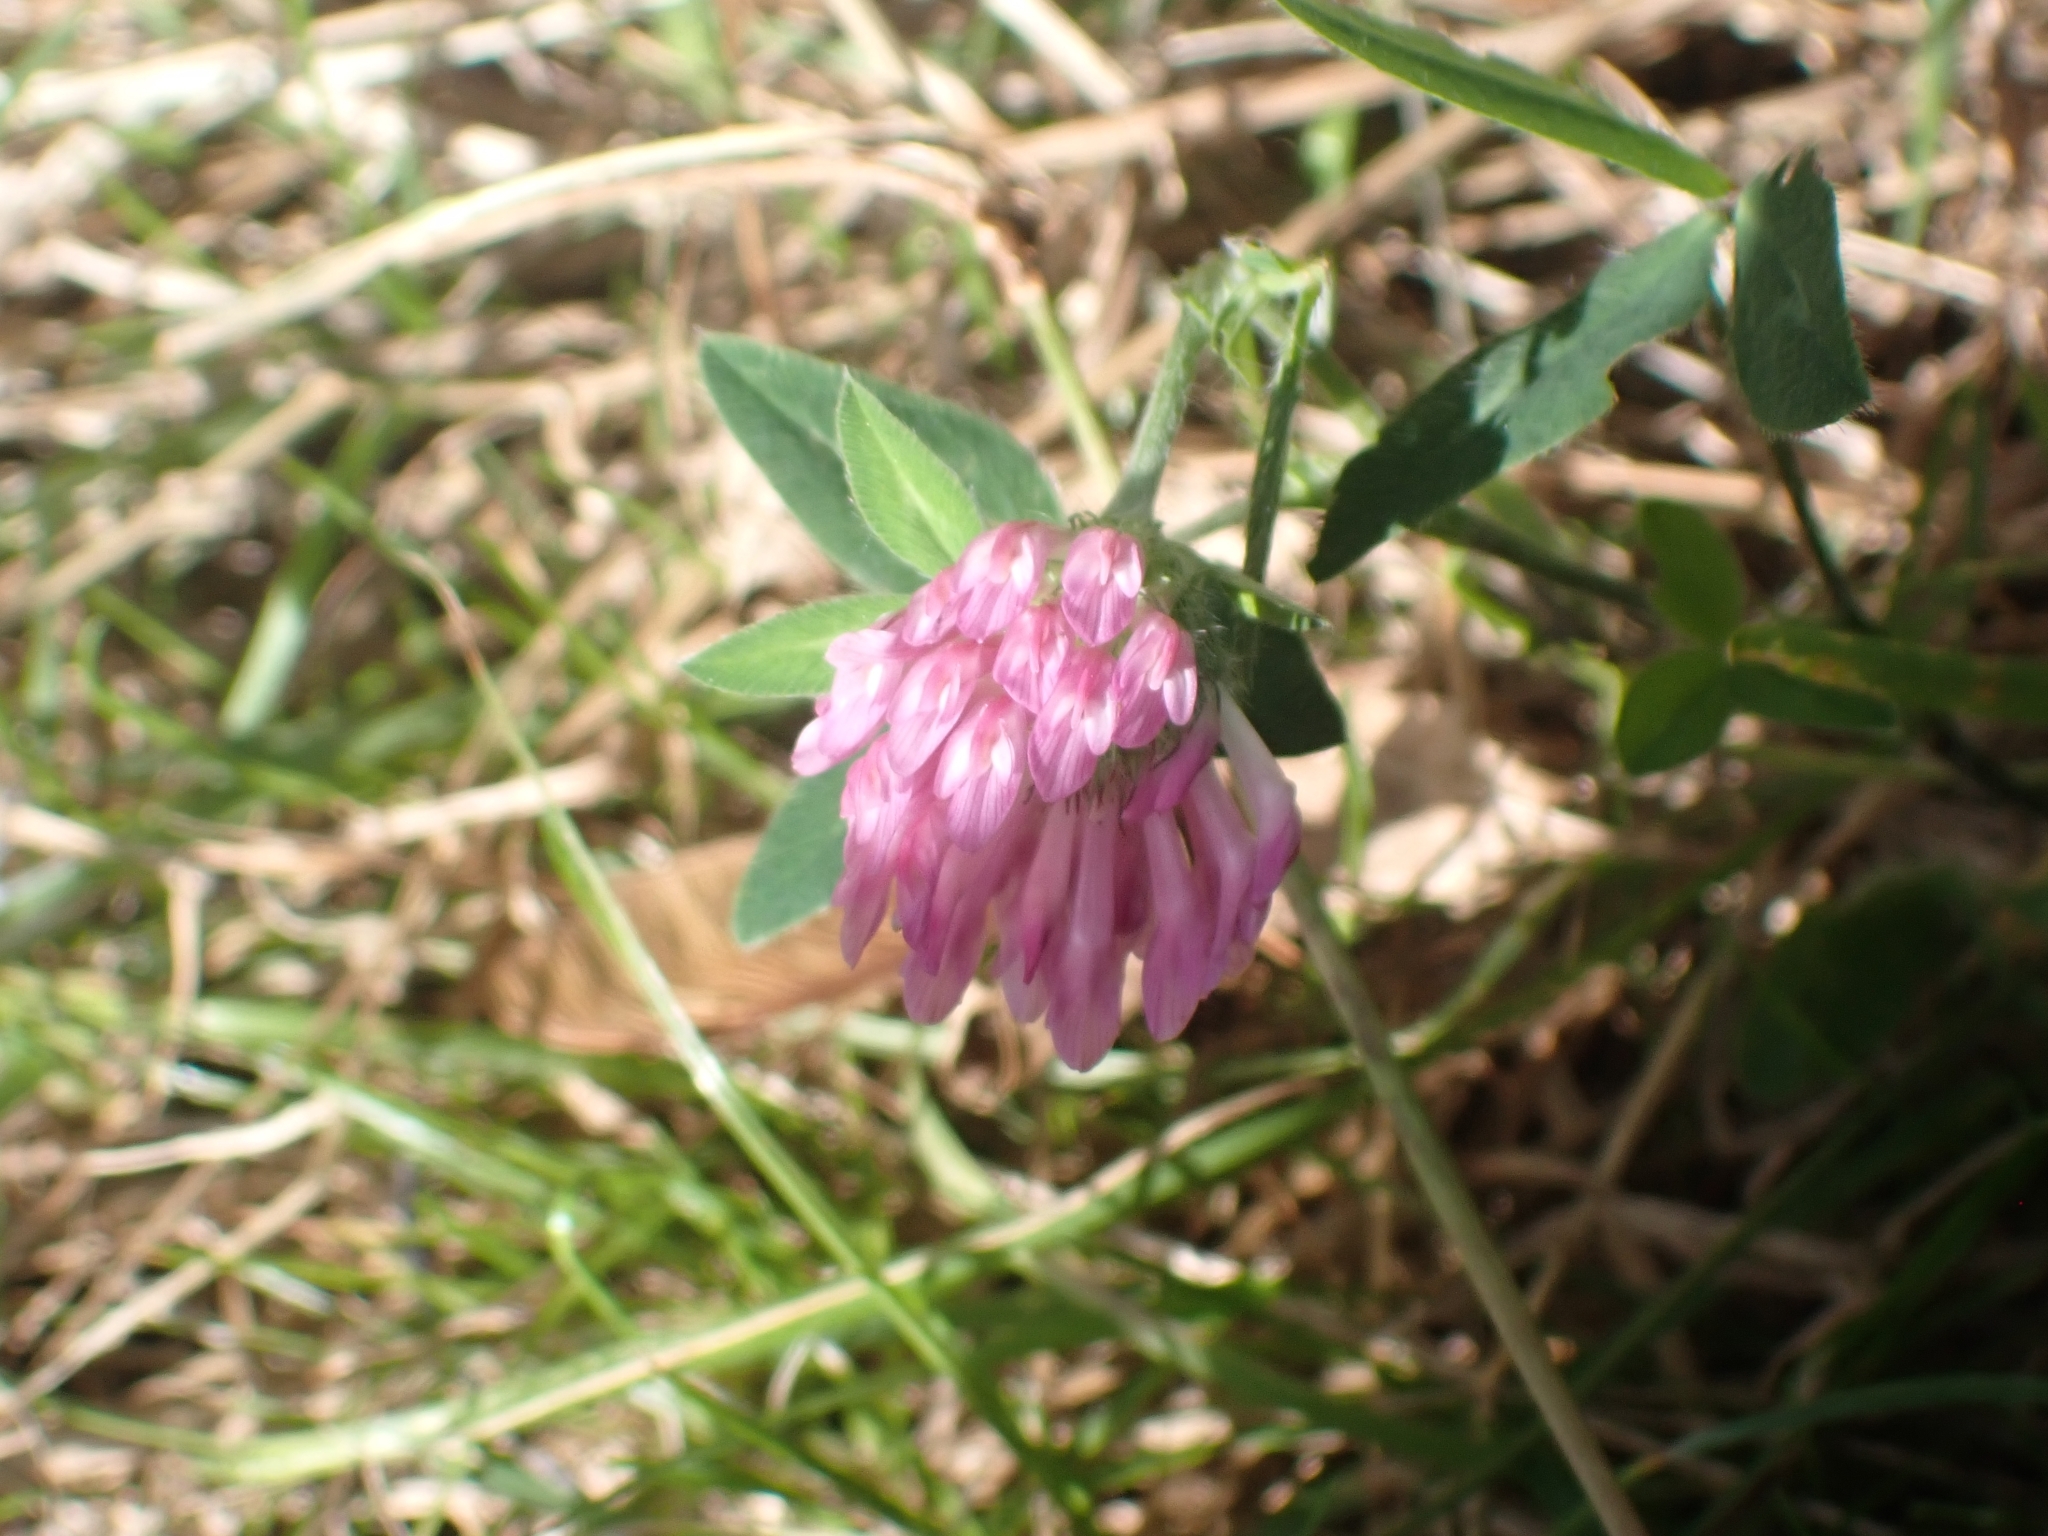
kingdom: Plantae
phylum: Tracheophyta
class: Magnoliopsida
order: Fabales
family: Fabaceae
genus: Trifolium
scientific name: Trifolium pratense
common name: Red clover
